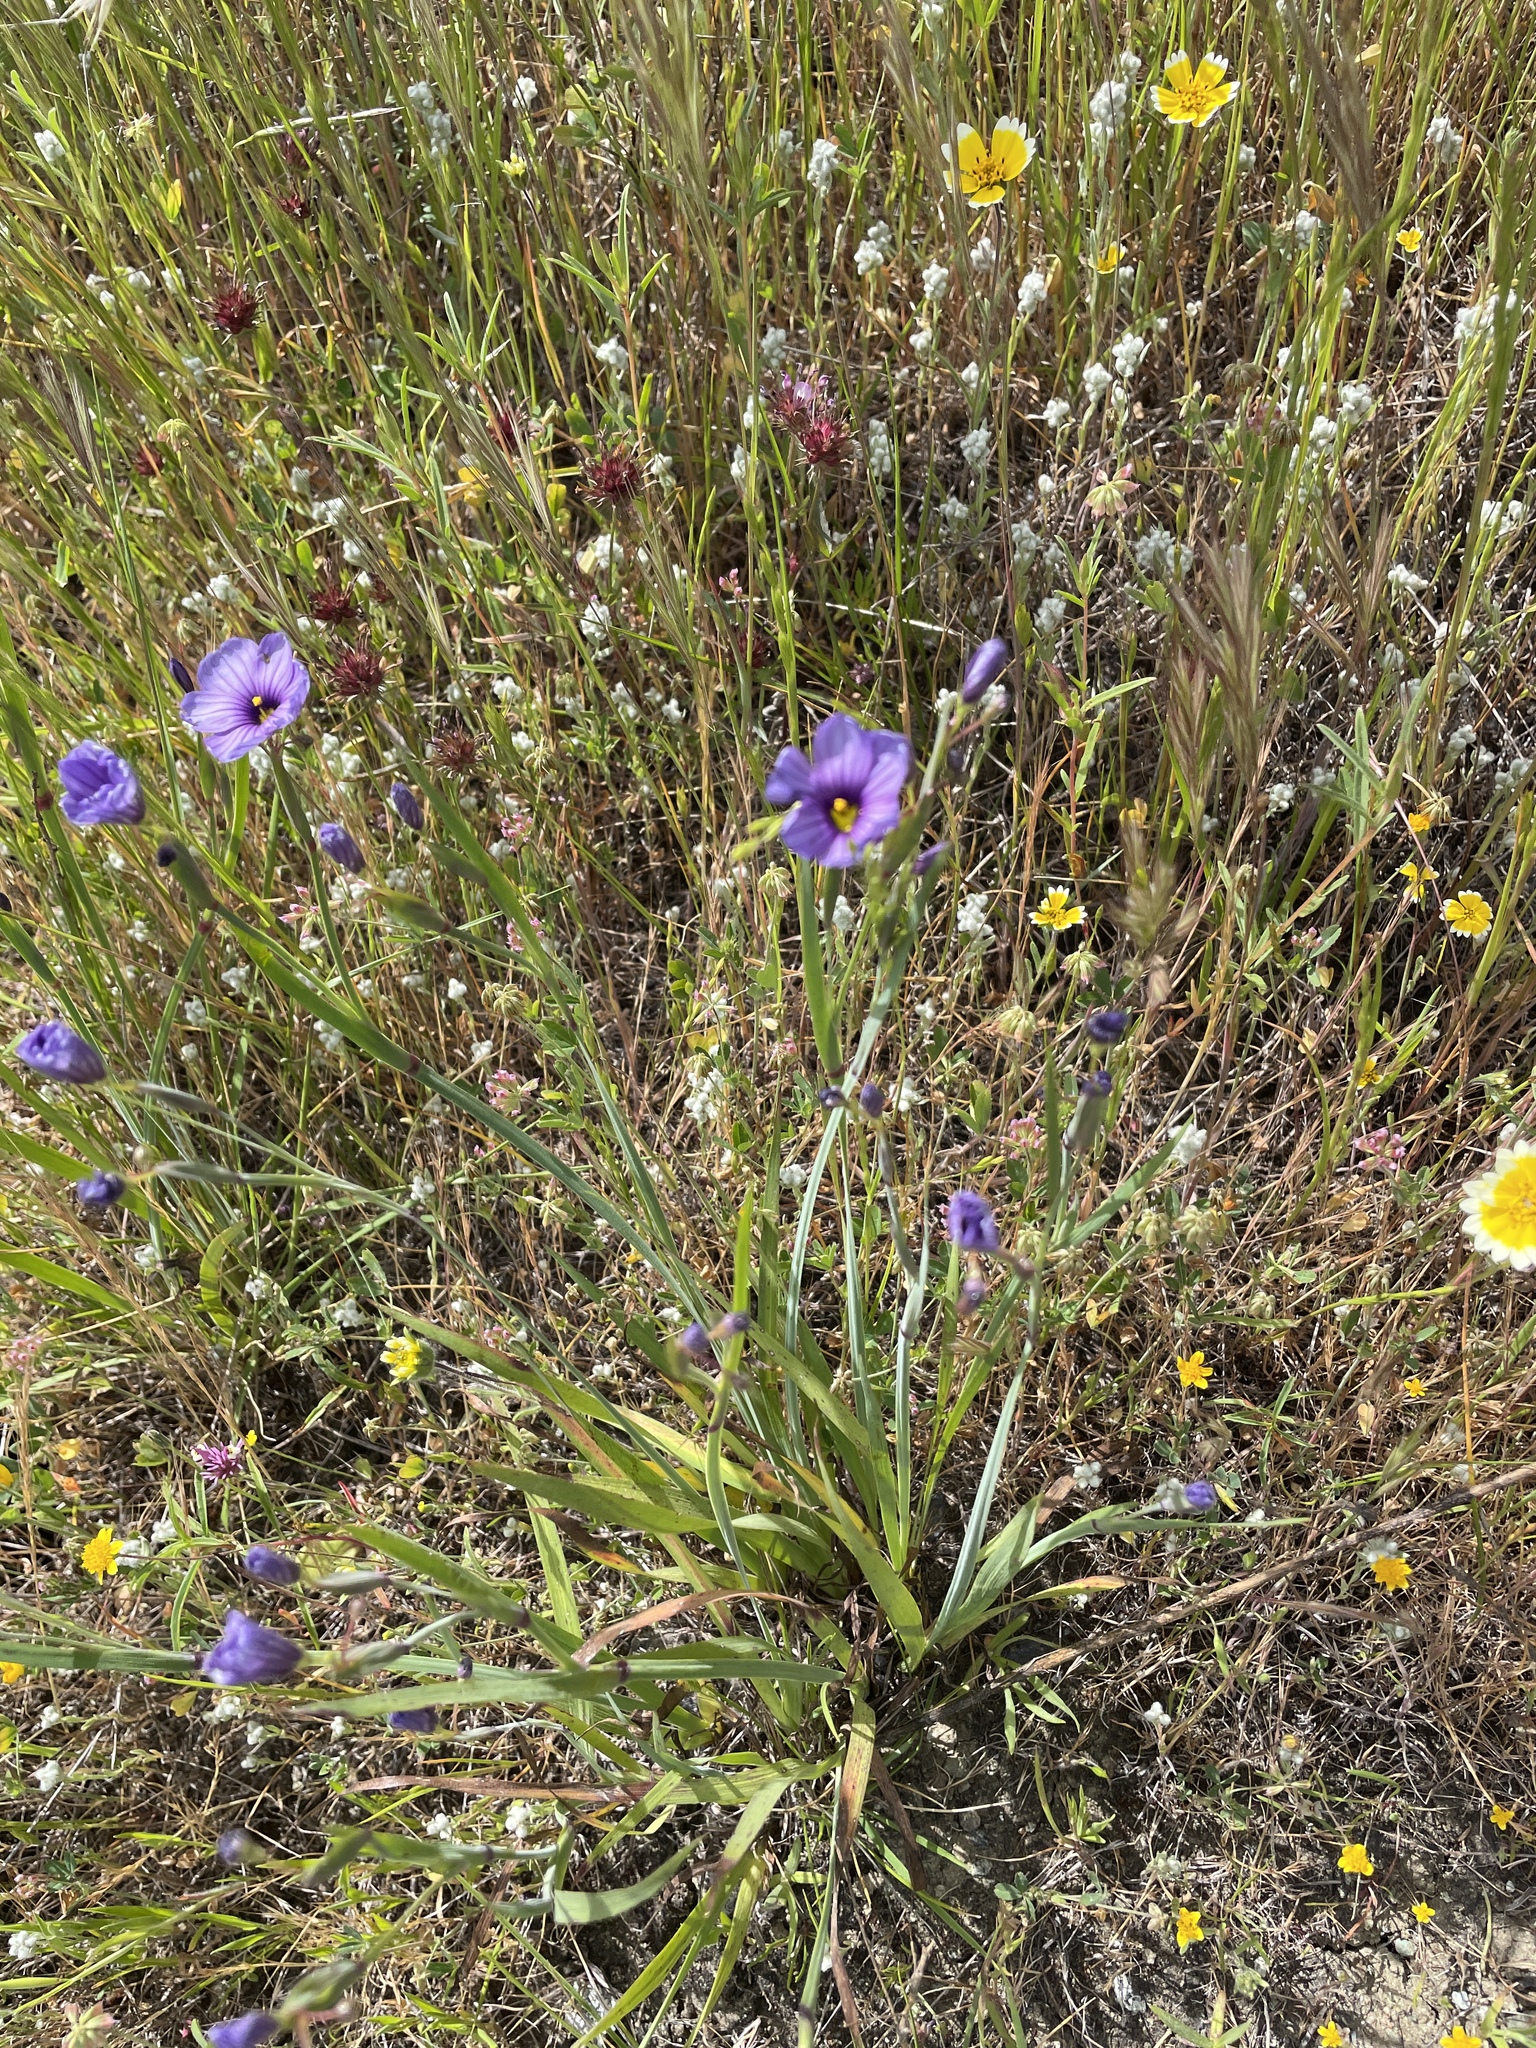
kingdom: Plantae
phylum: Tracheophyta
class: Liliopsida
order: Asparagales
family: Iridaceae
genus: Sisyrinchium
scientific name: Sisyrinchium bellum
